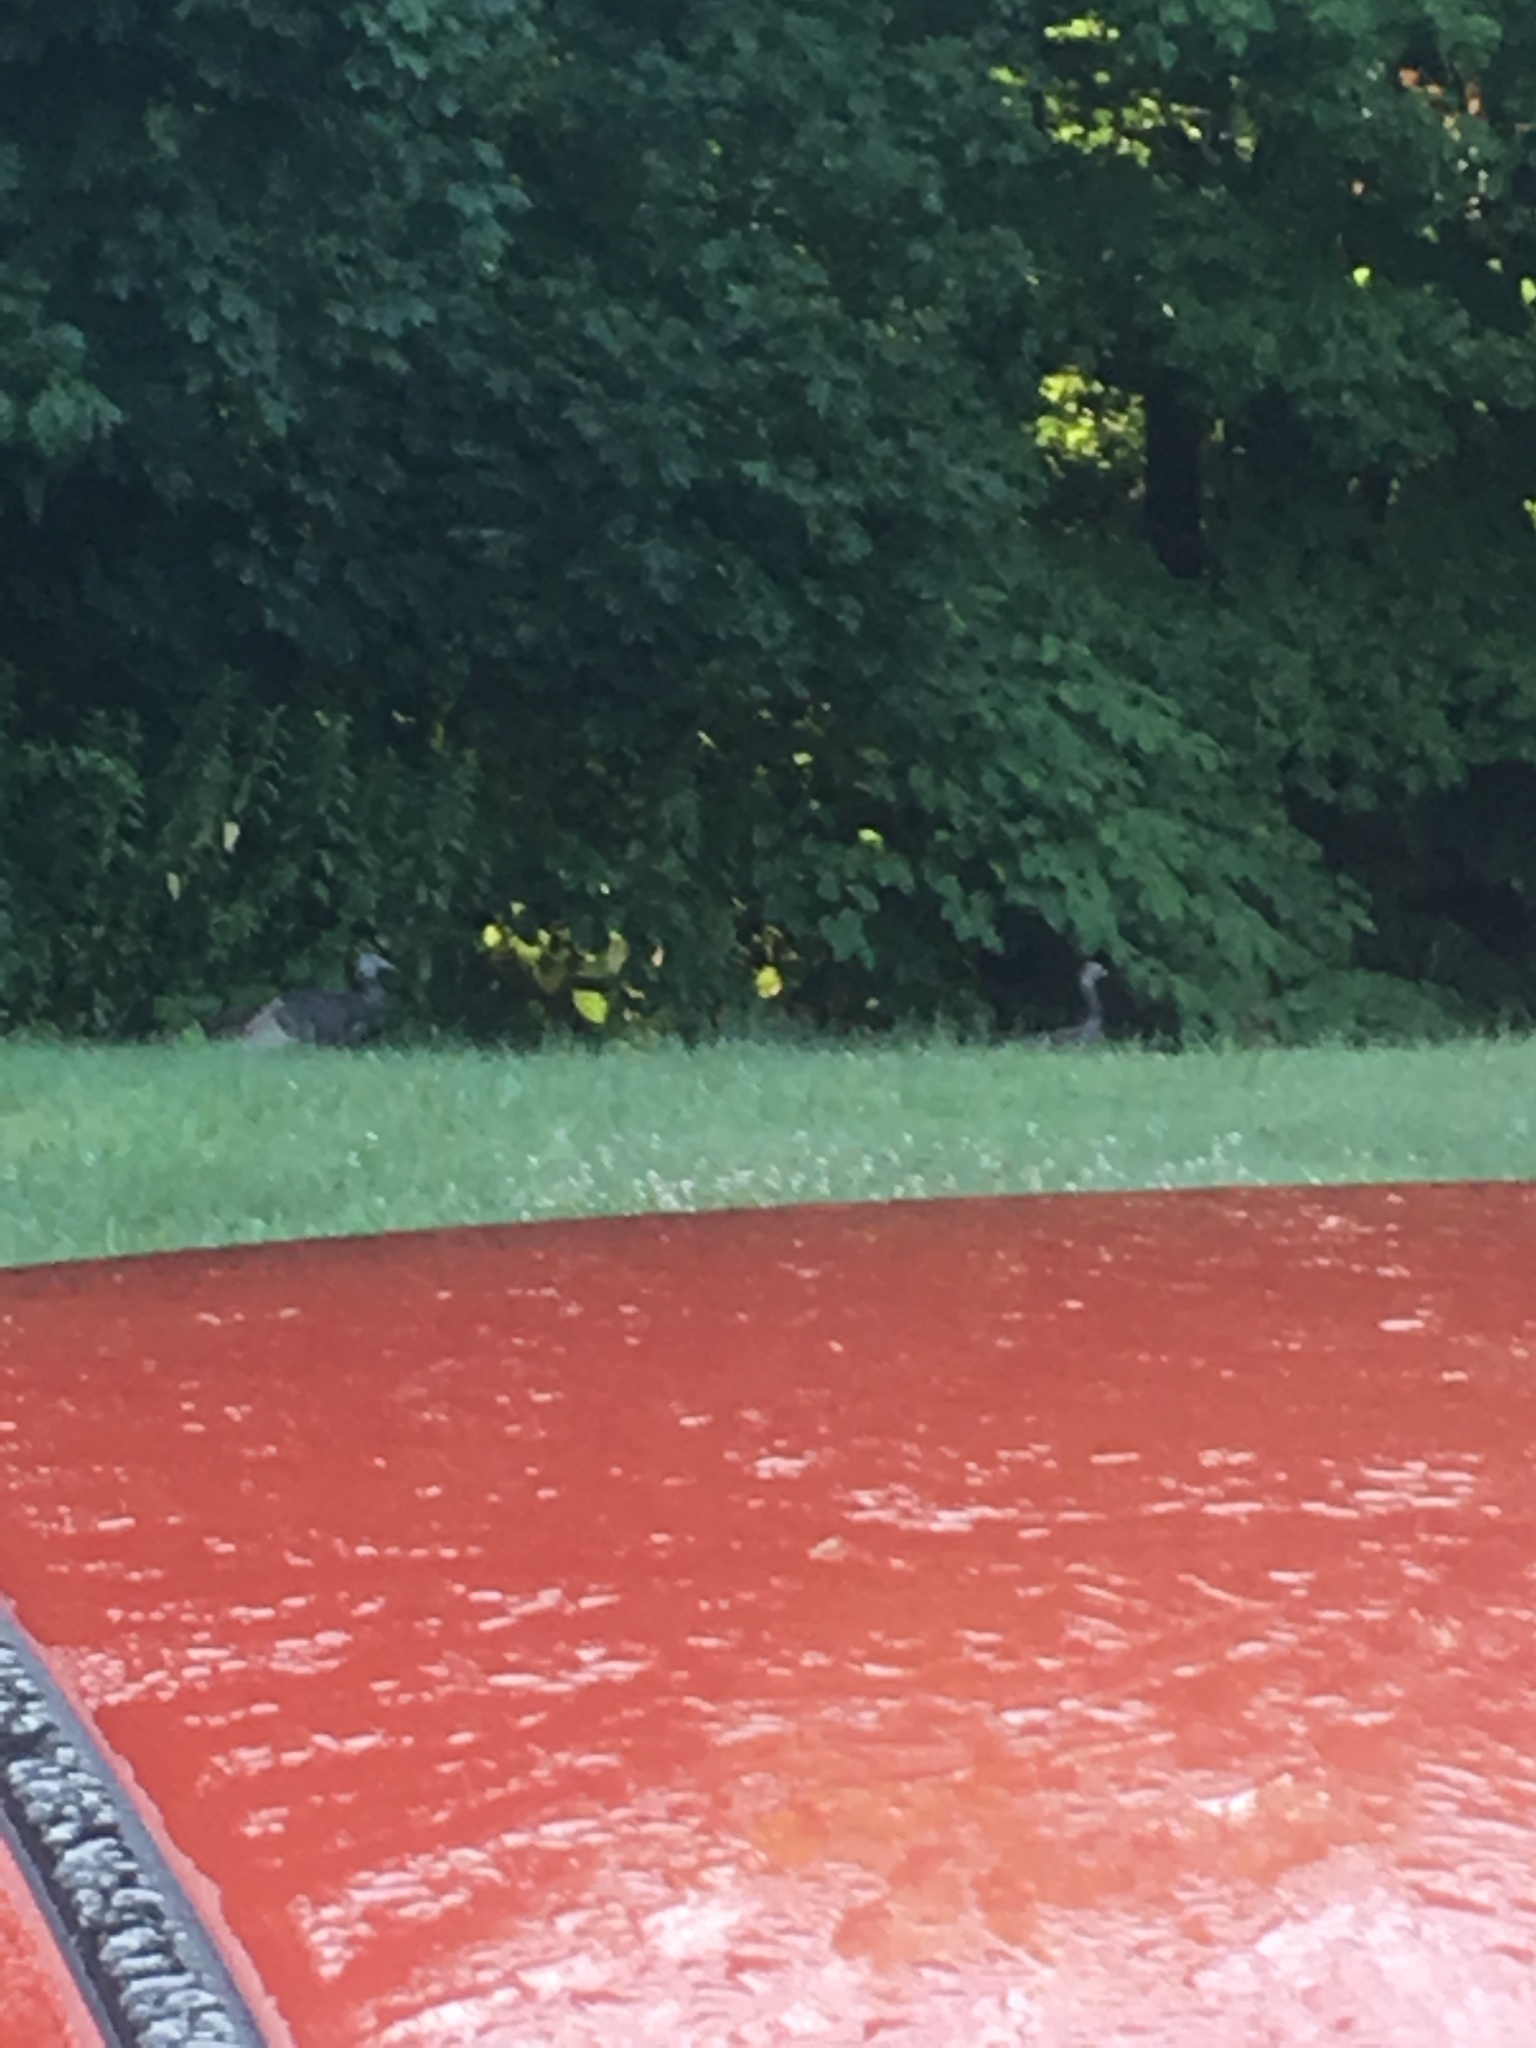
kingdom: Animalia
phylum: Chordata
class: Aves
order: Galliformes
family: Phasianidae
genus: Meleagris
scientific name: Meleagris gallopavo
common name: Wild turkey
